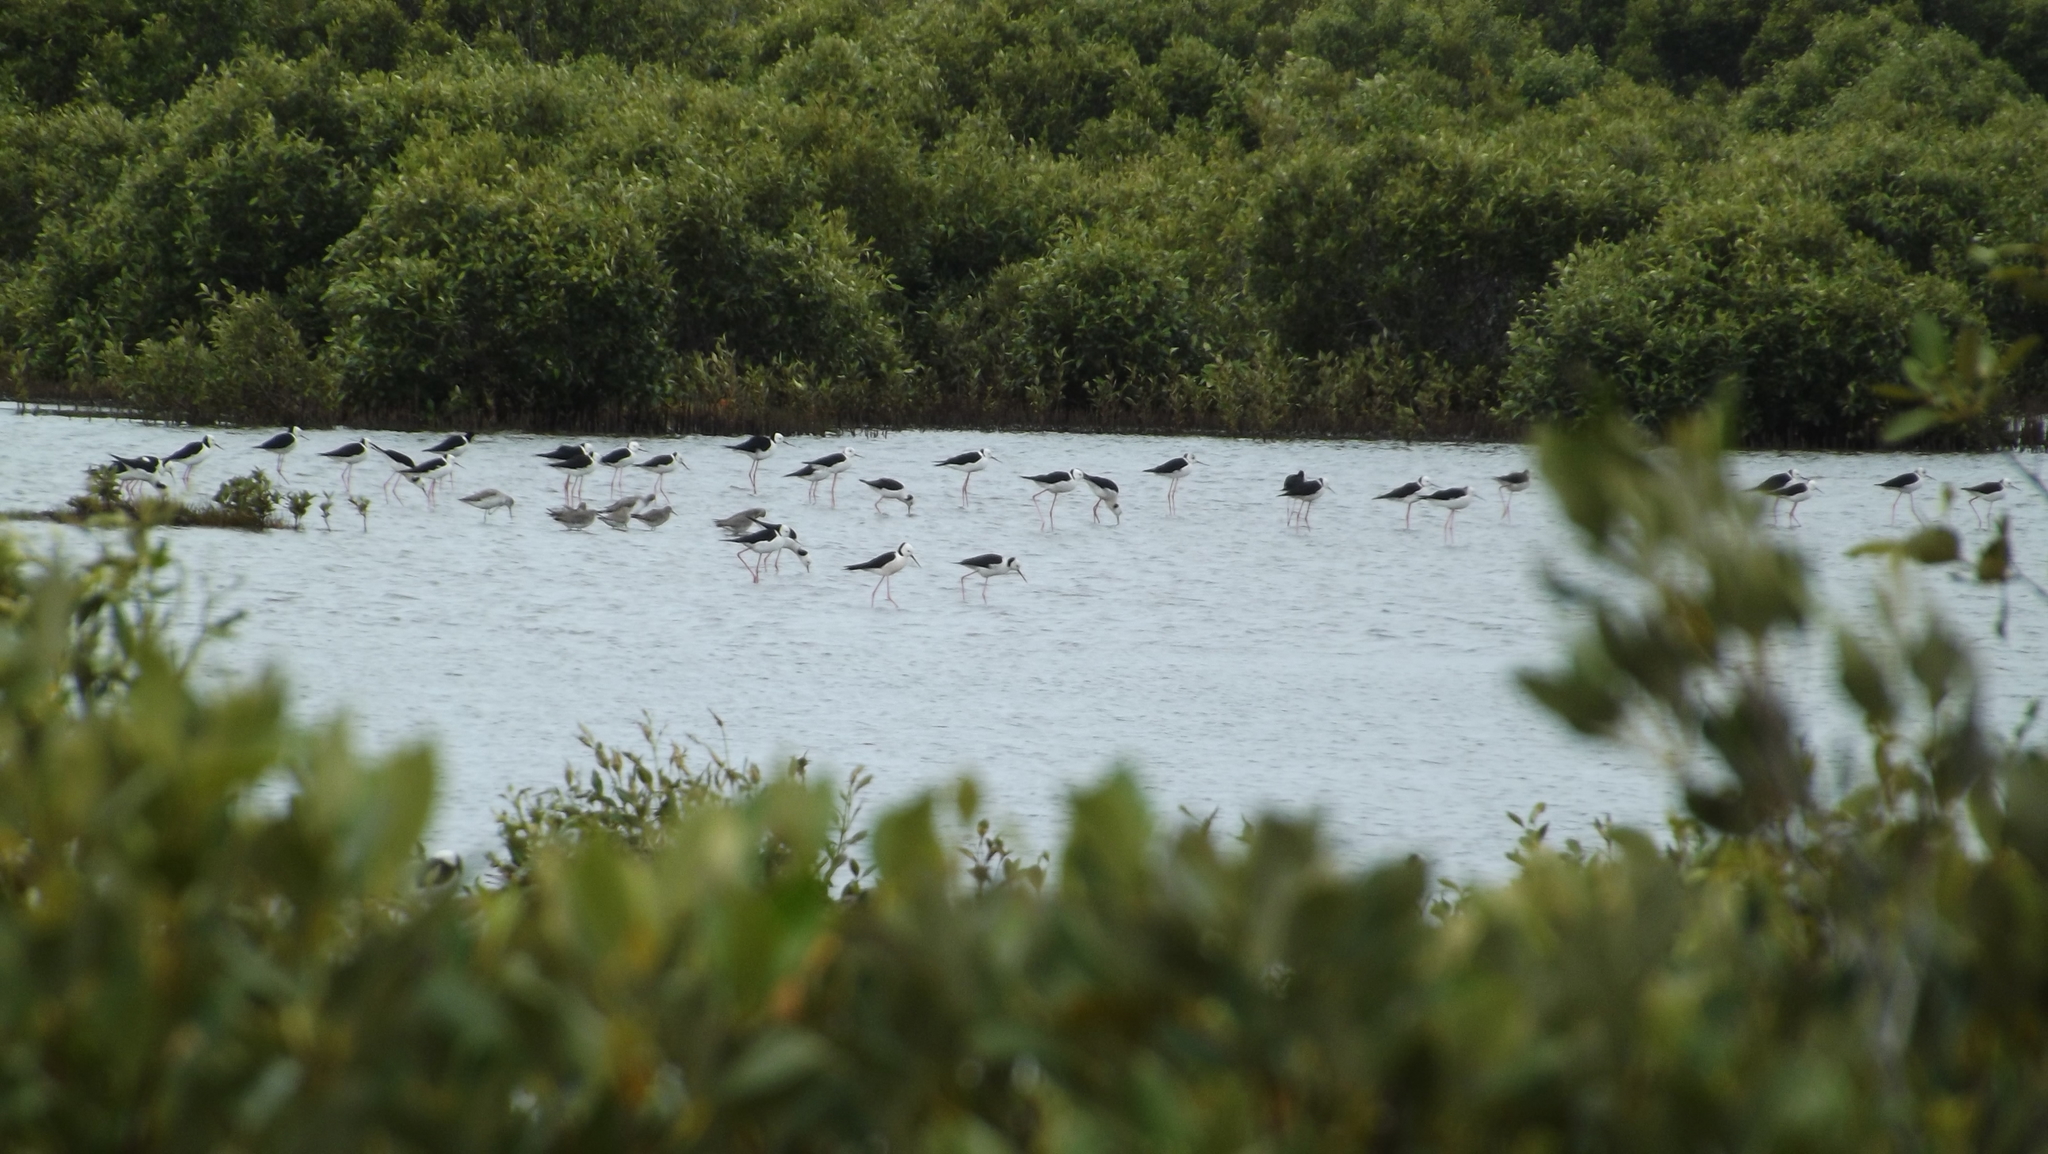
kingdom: Animalia
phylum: Chordata
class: Aves
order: Charadriiformes
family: Recurvirostridae
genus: Himantopus
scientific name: Himantopus leucocephalus
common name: White-headed stilt
